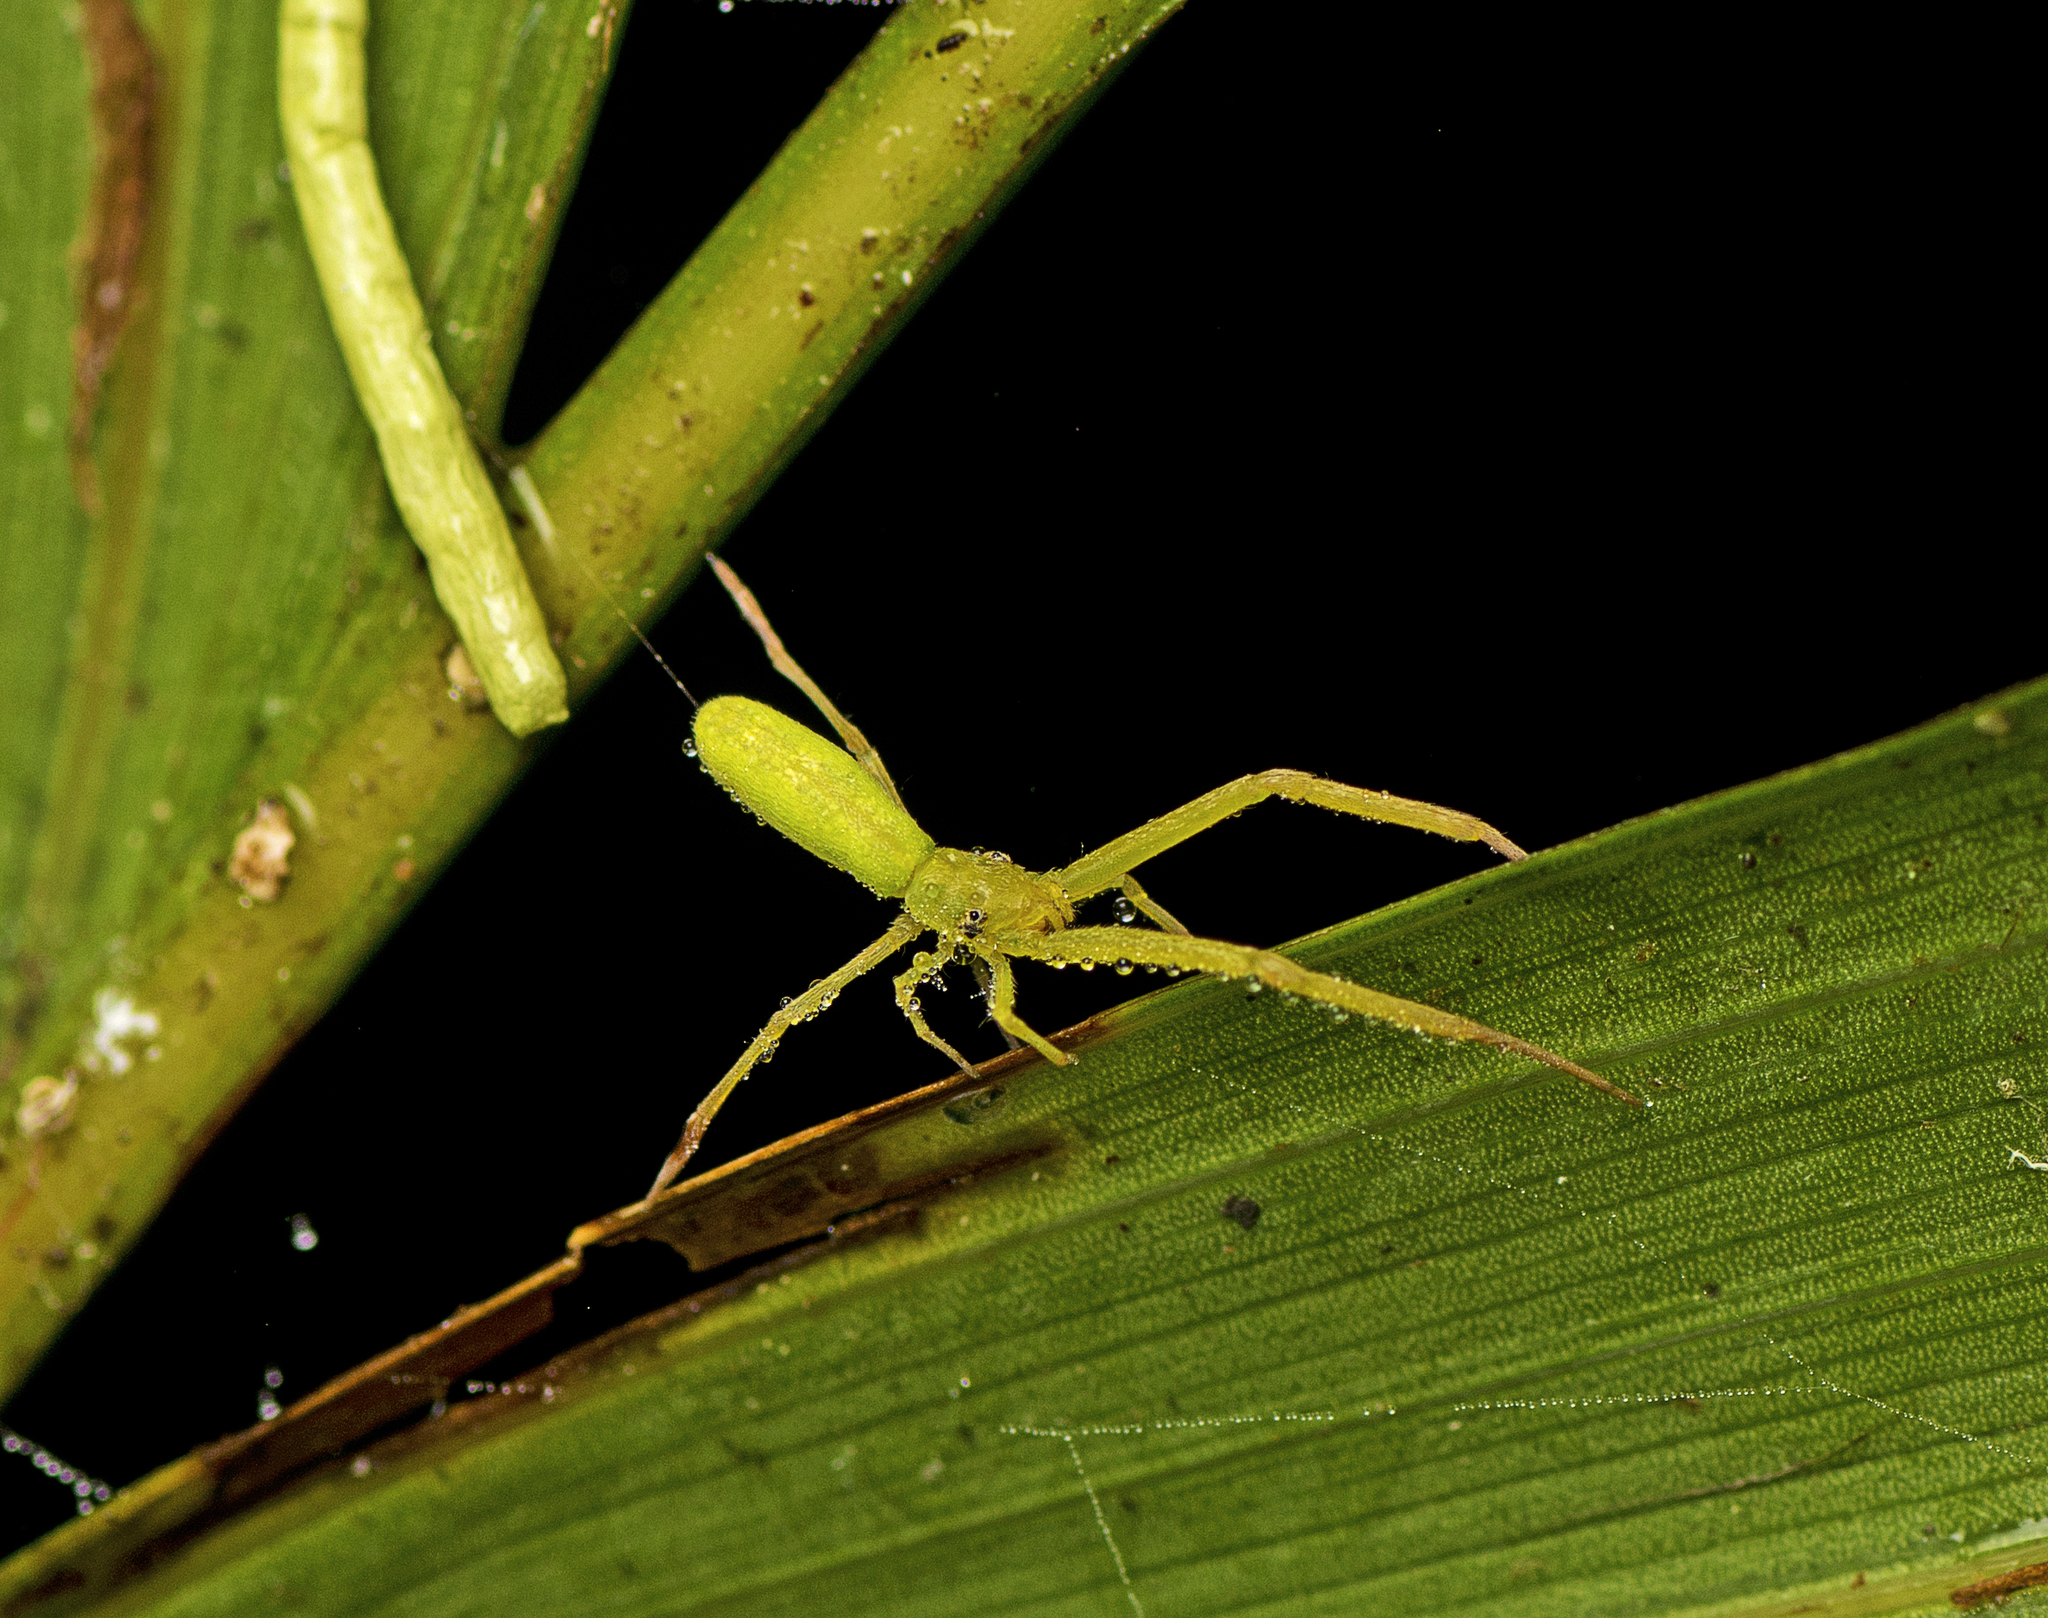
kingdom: Animalia
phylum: Arthropoda
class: Arachnida
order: Araneae
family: Uloboridae
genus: Miagrammopes
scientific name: Miagrammopes flavus
